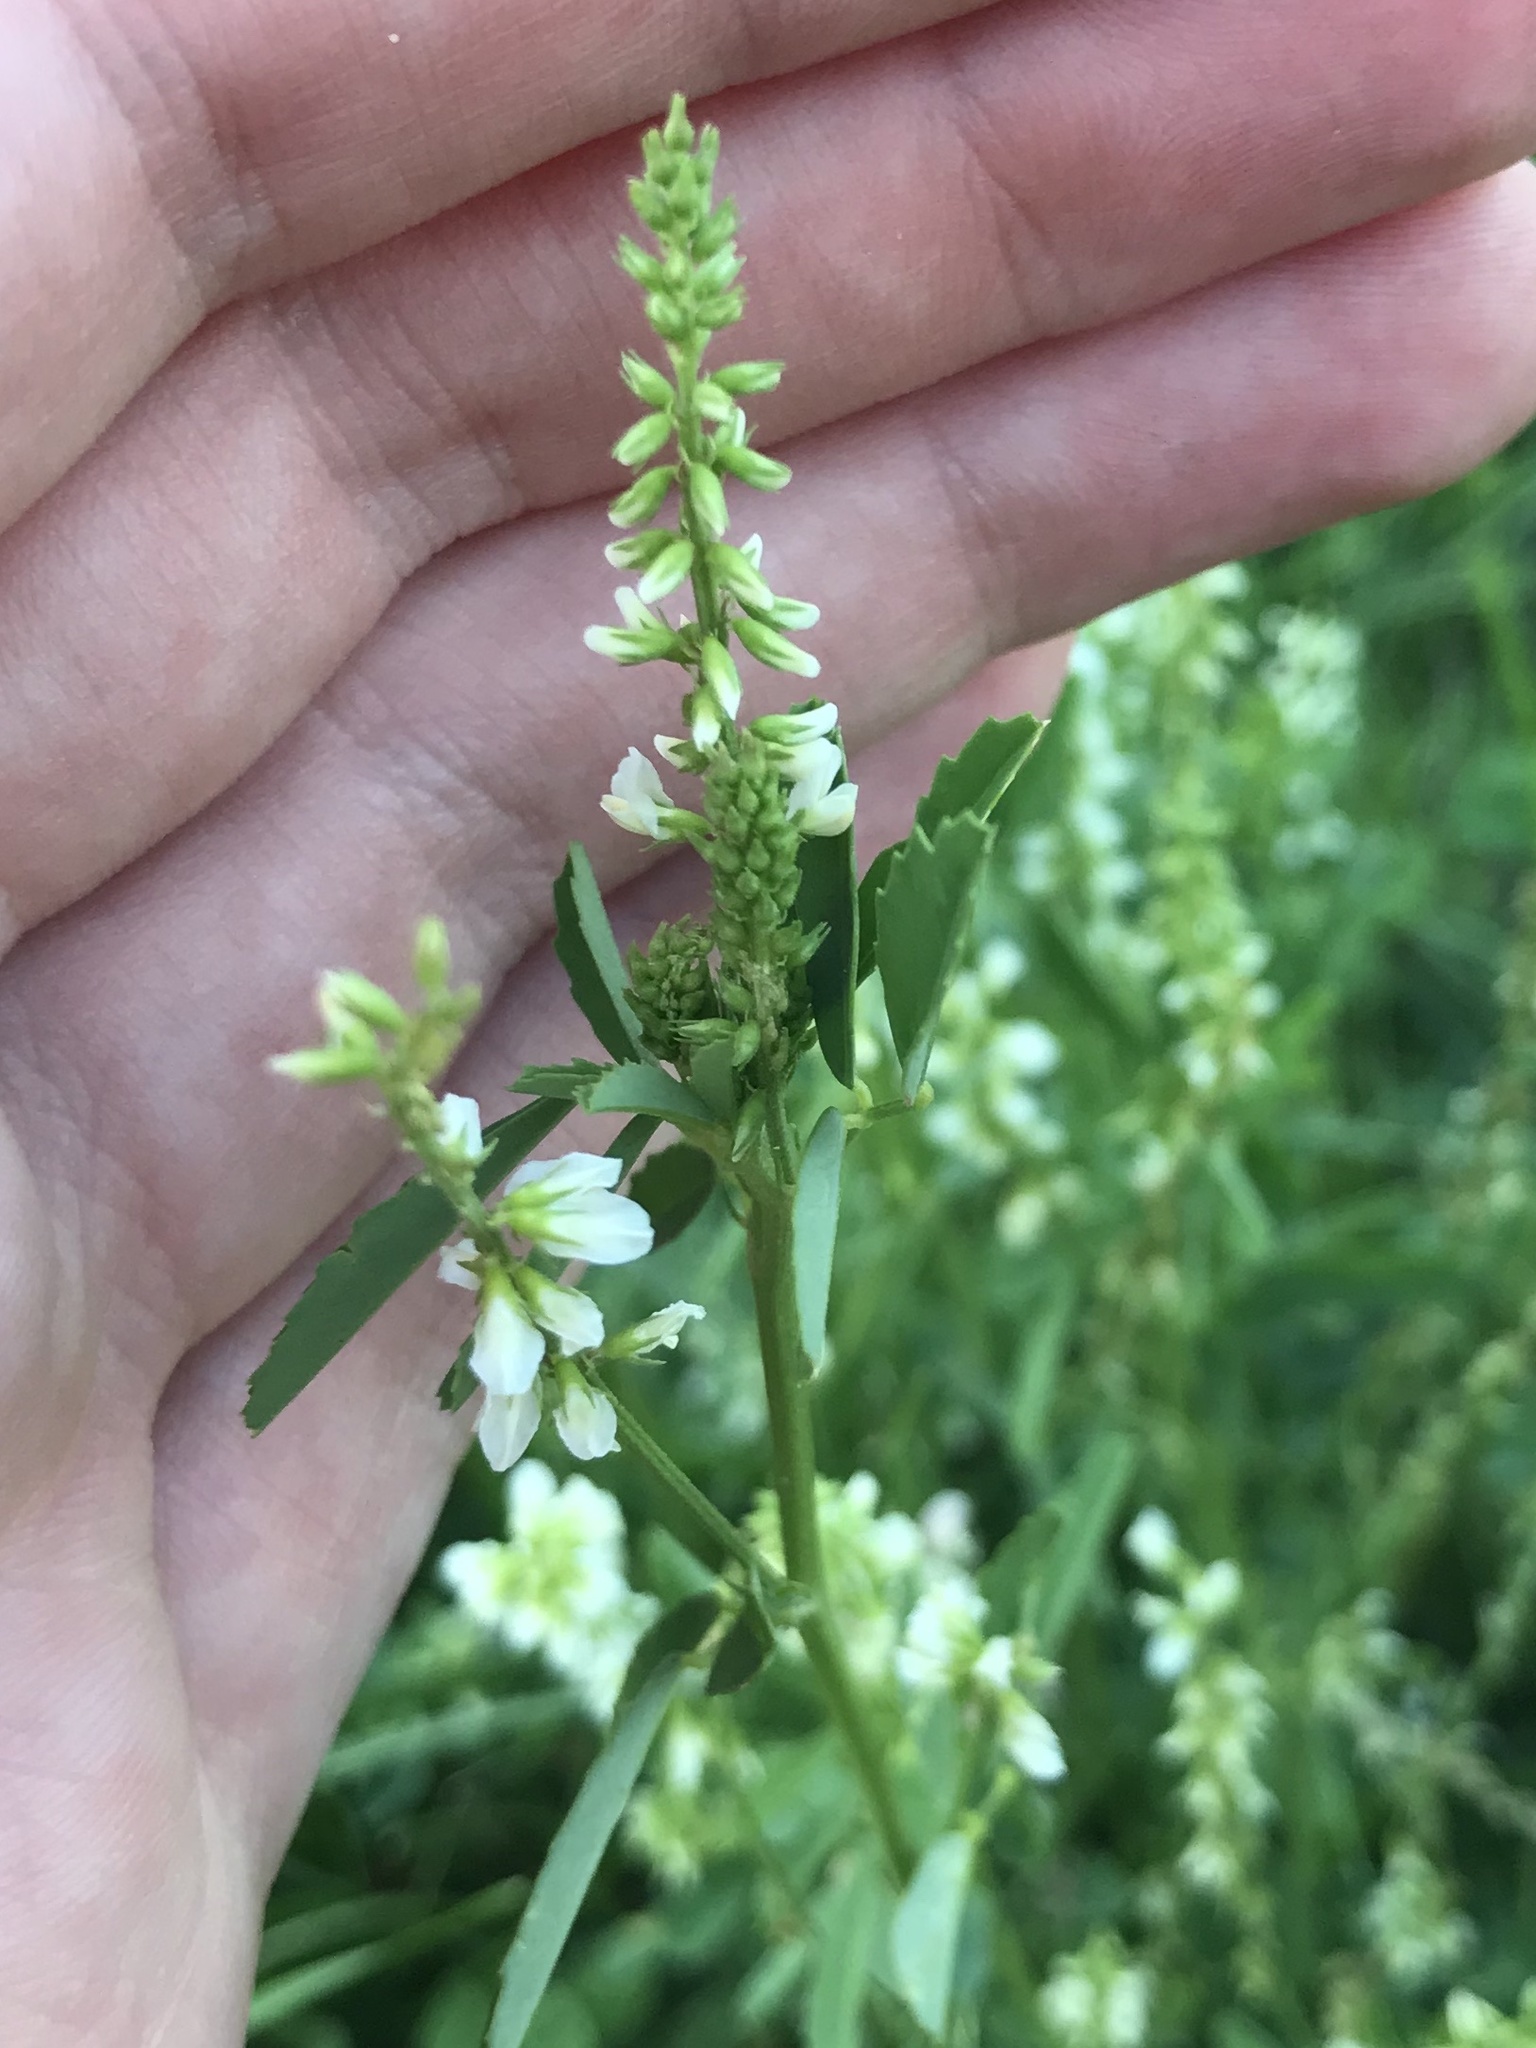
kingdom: Plantae
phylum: Tracheophyta
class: Magnoliopsida
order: Fabales
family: Fabaceae
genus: Melilotus
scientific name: Melilotus albus
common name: White melilot
